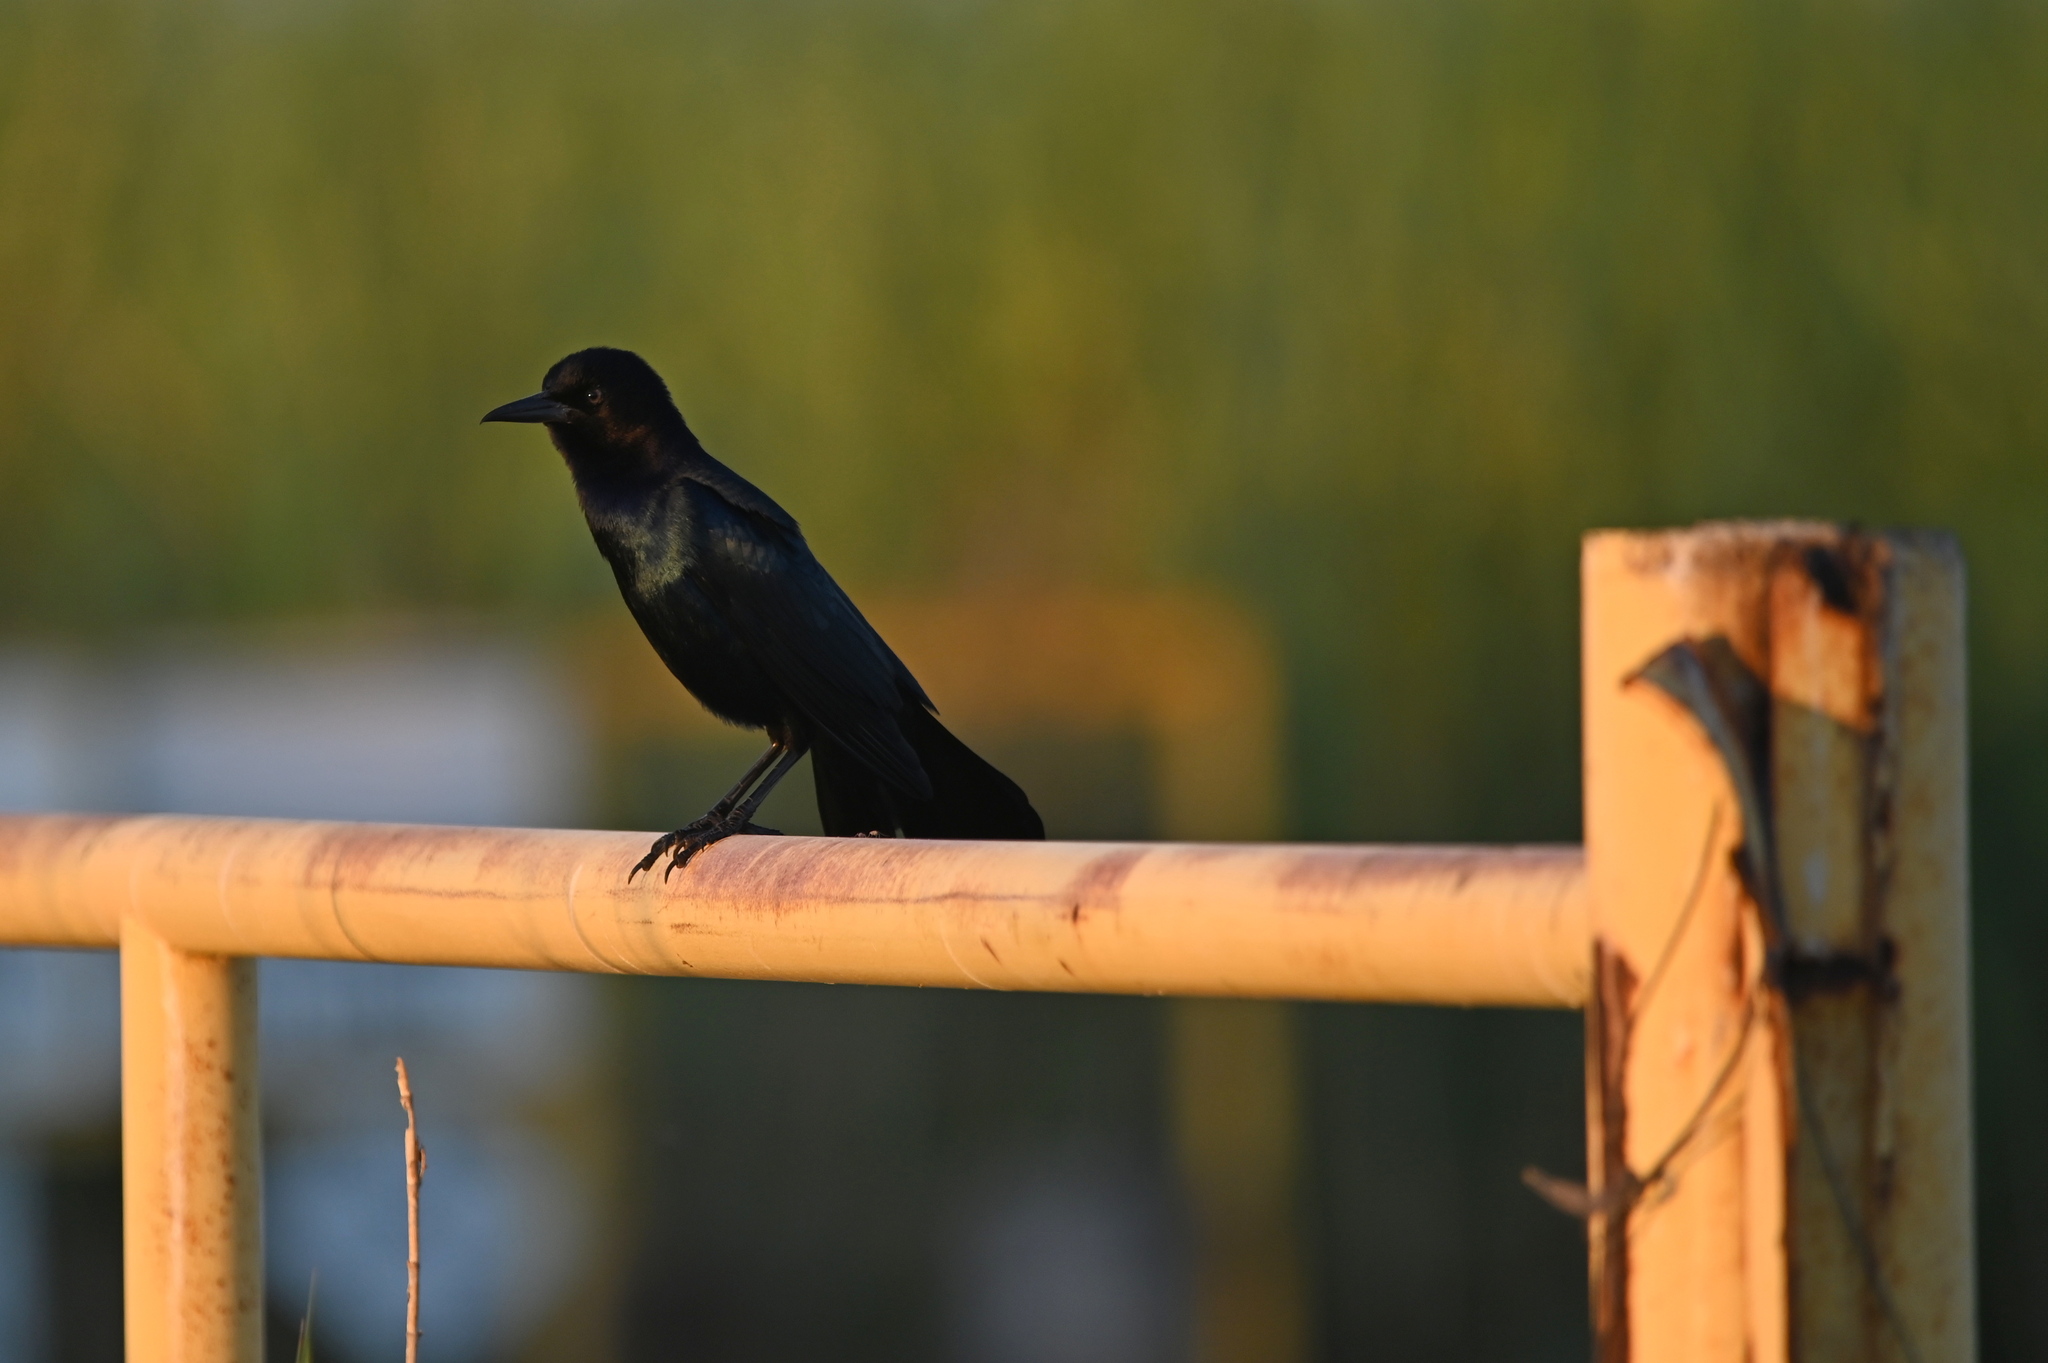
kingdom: Animalia
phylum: Chordata
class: Aves
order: Passeriformes
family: Icteridae
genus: Quiscalus
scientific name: Quiscalus major
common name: Boat-tailed grackle
